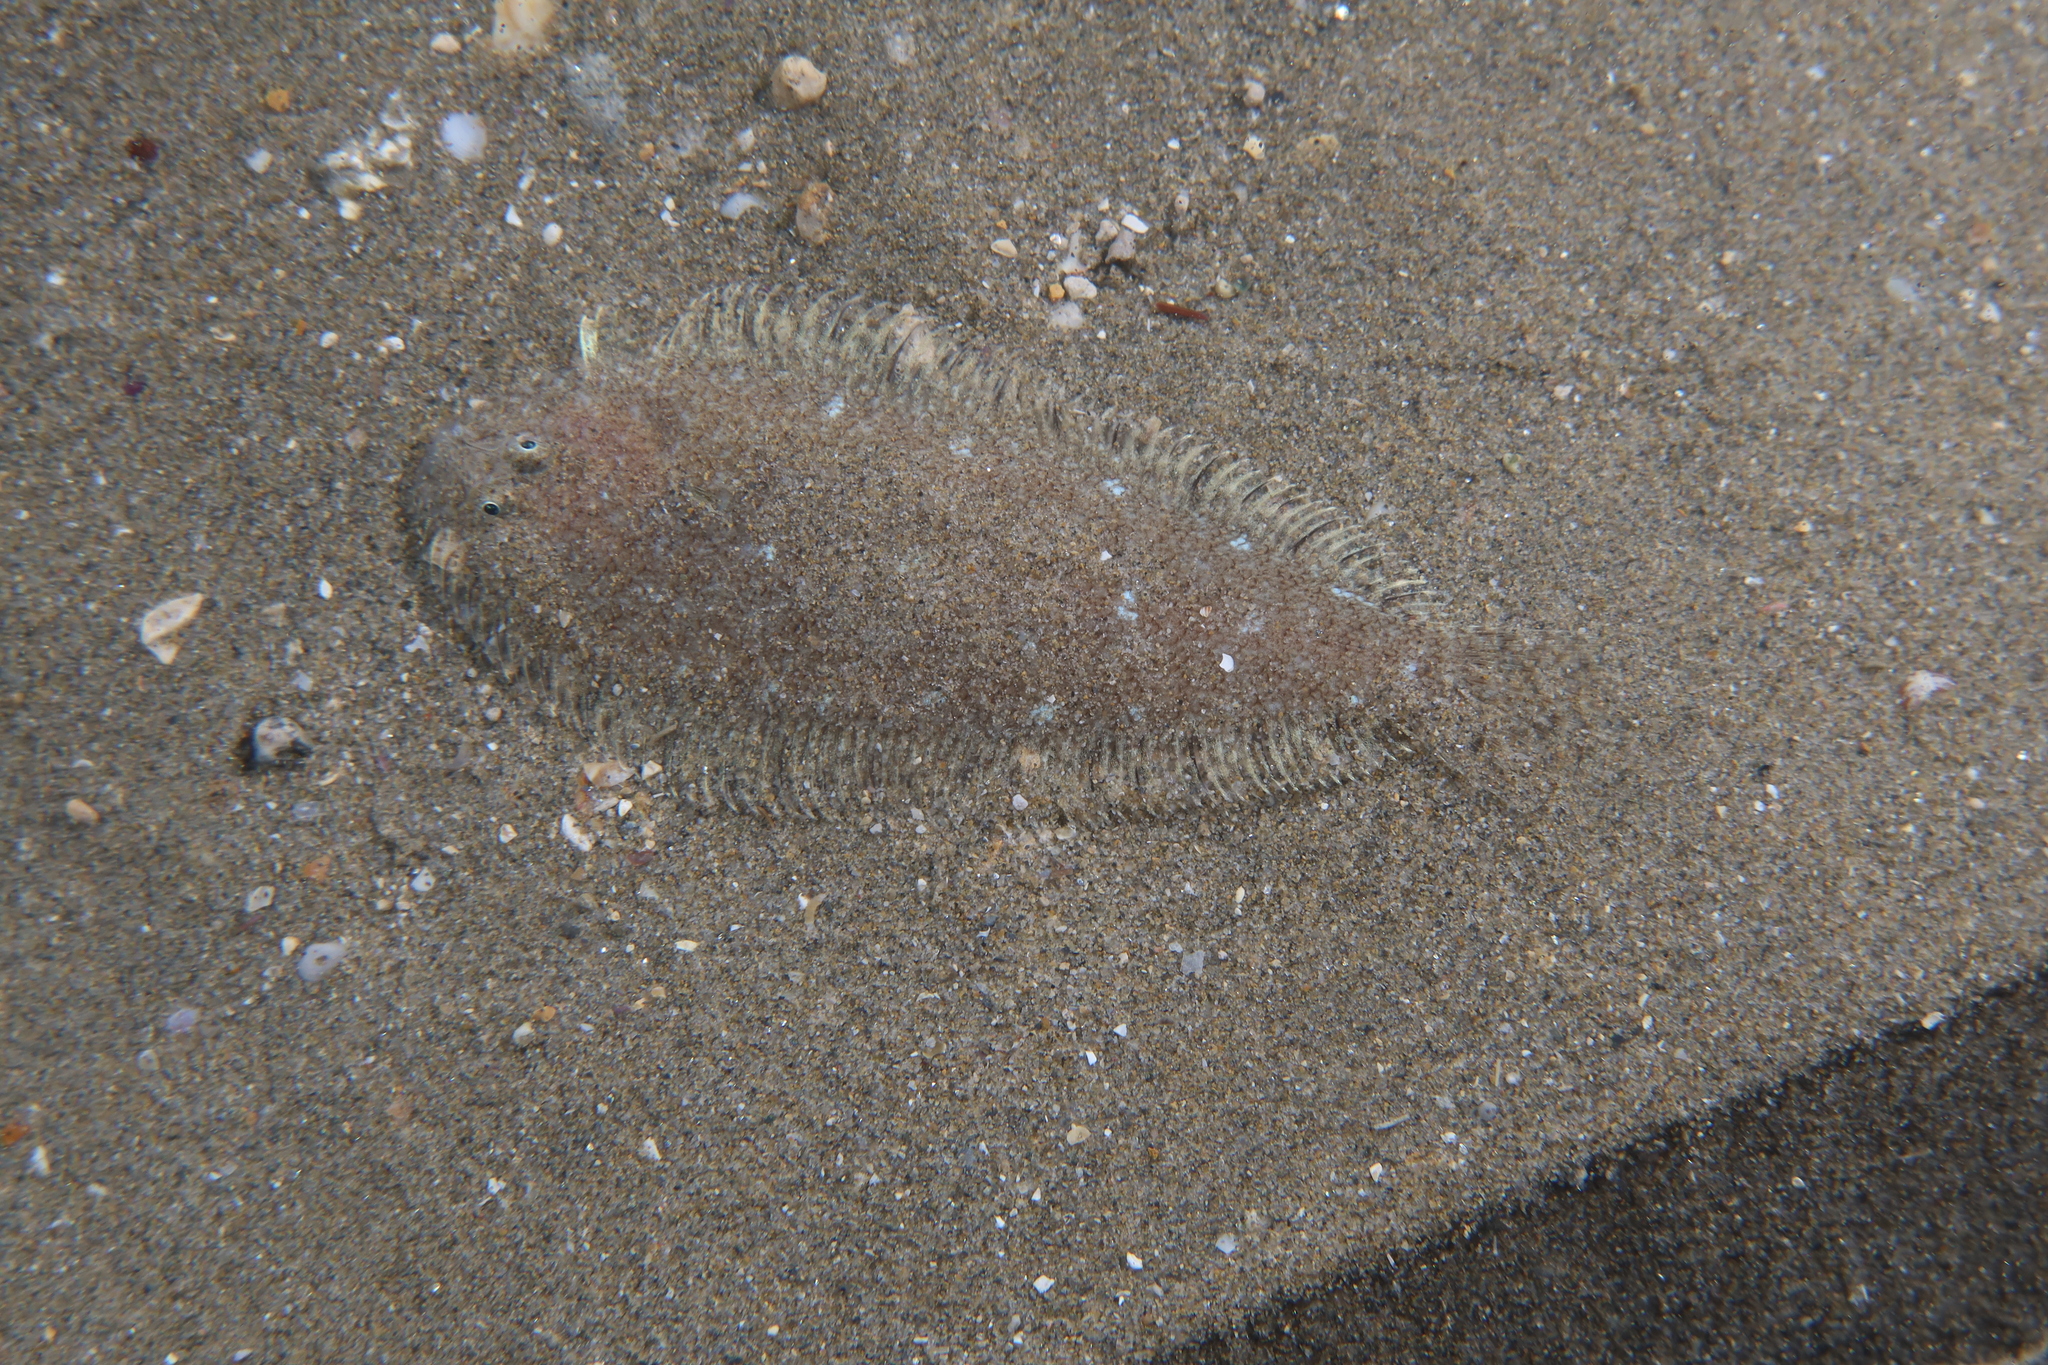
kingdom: Animalia
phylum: Chordata
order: Pleuronectiformes
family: Soleidae
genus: Buglossidium
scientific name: Buglossidium luteum
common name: Solenette
